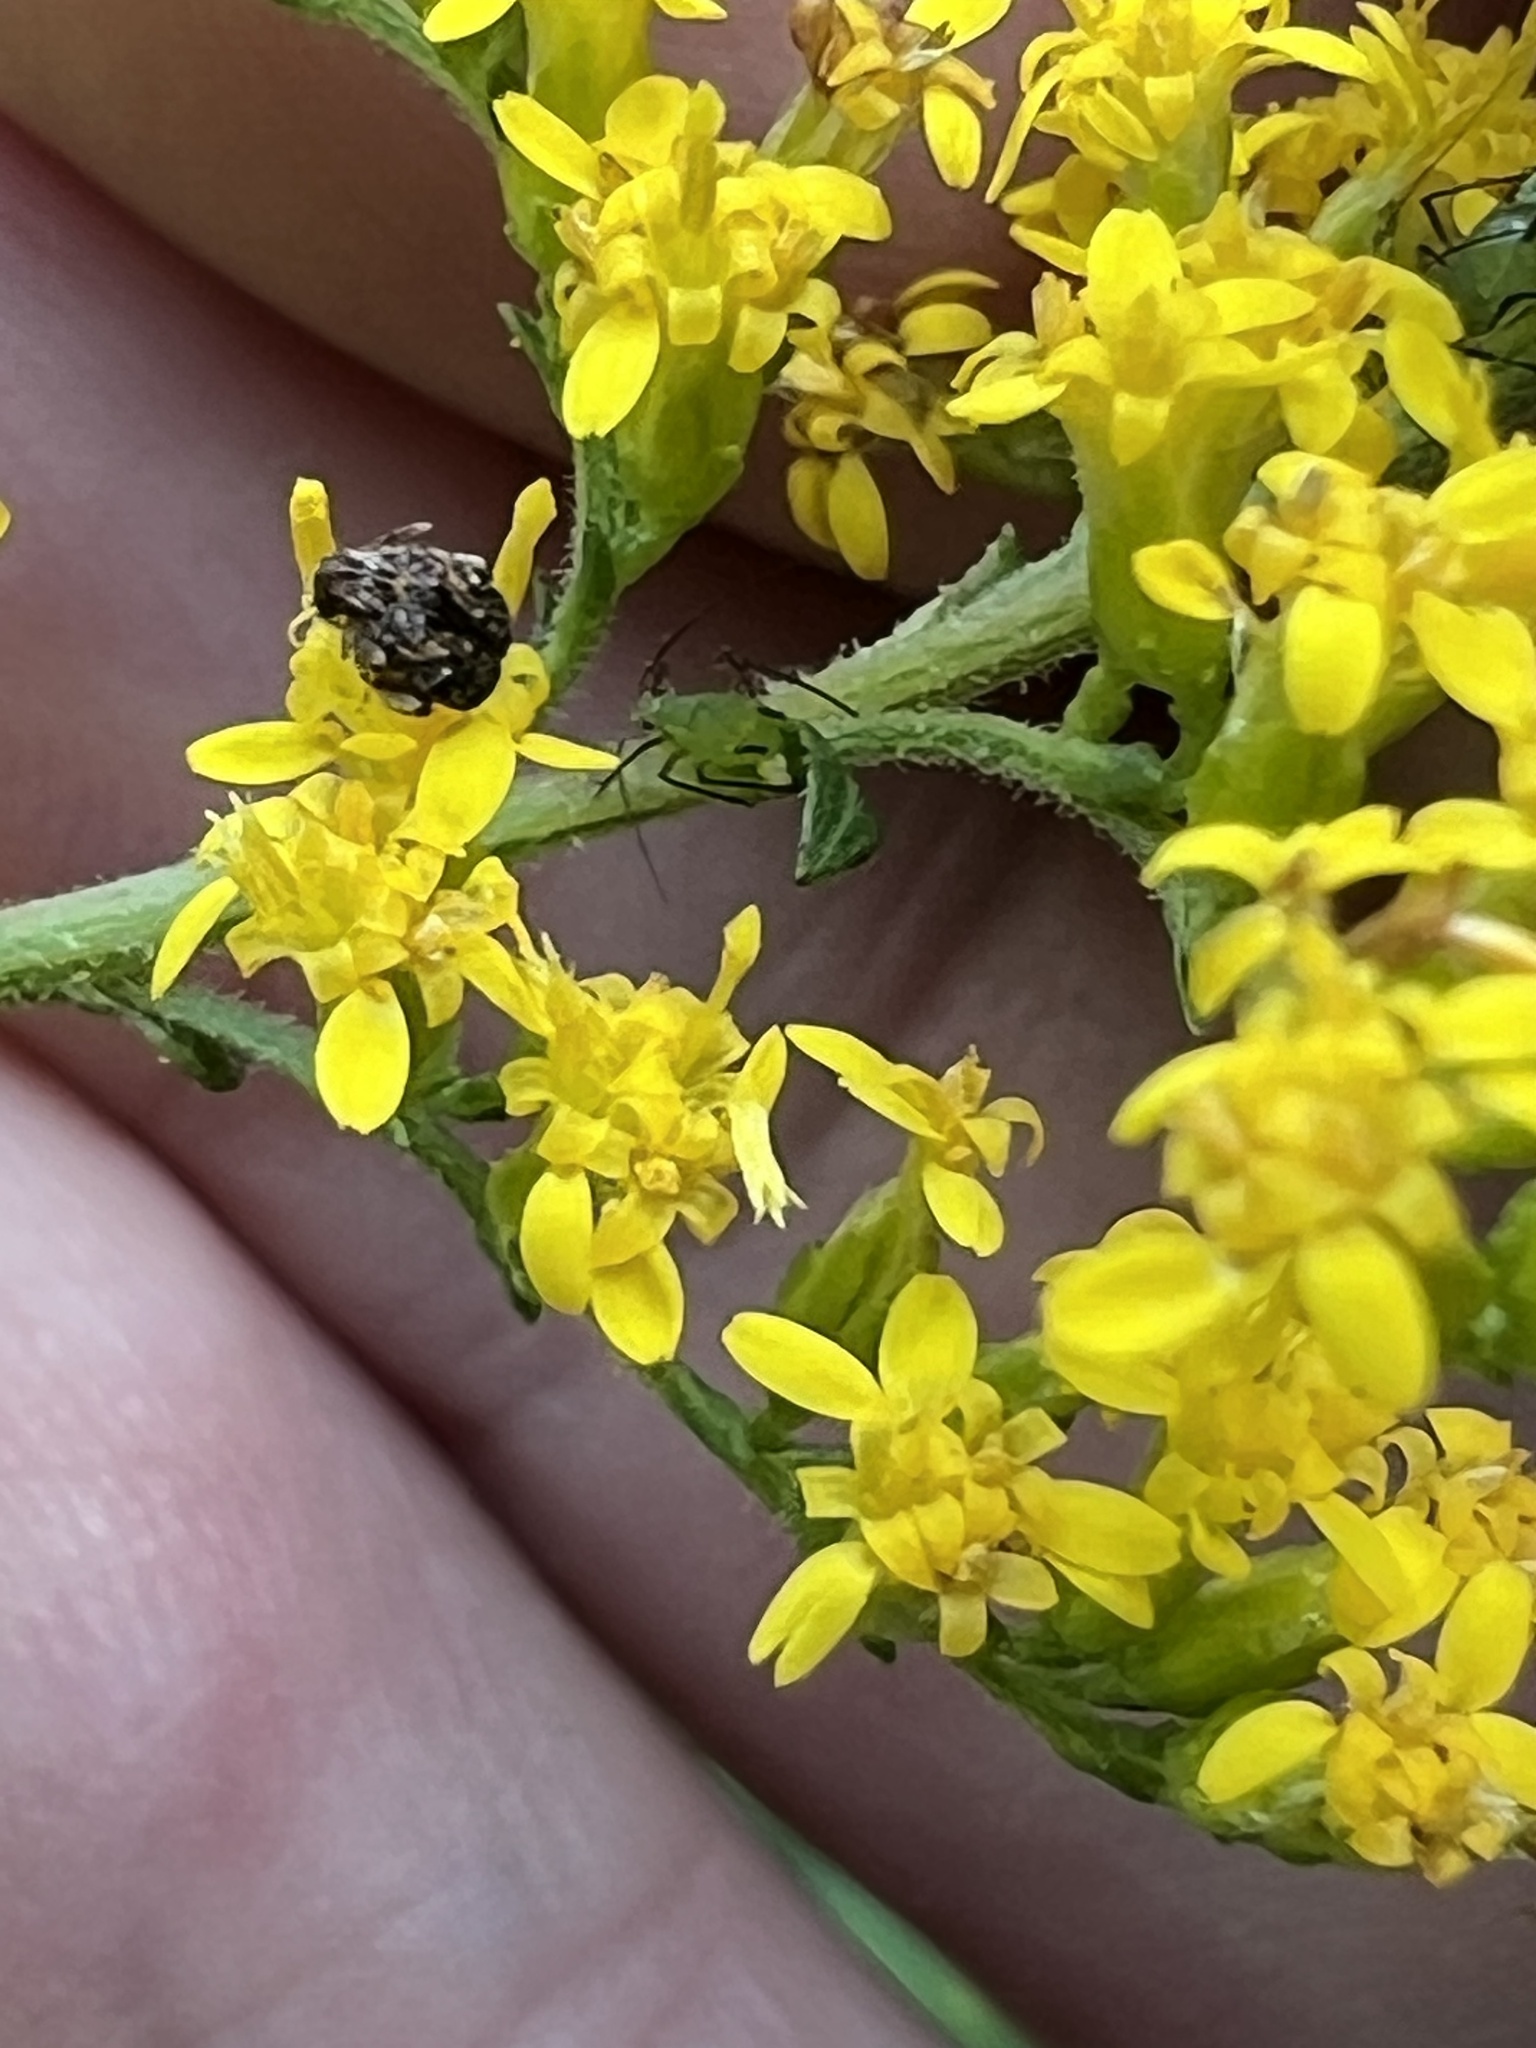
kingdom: Animalia
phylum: Arthropoda
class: Insecta
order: Coleoptera
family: Chrysomelidae
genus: Gibbobruchus
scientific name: Gibbobruchus mimus
